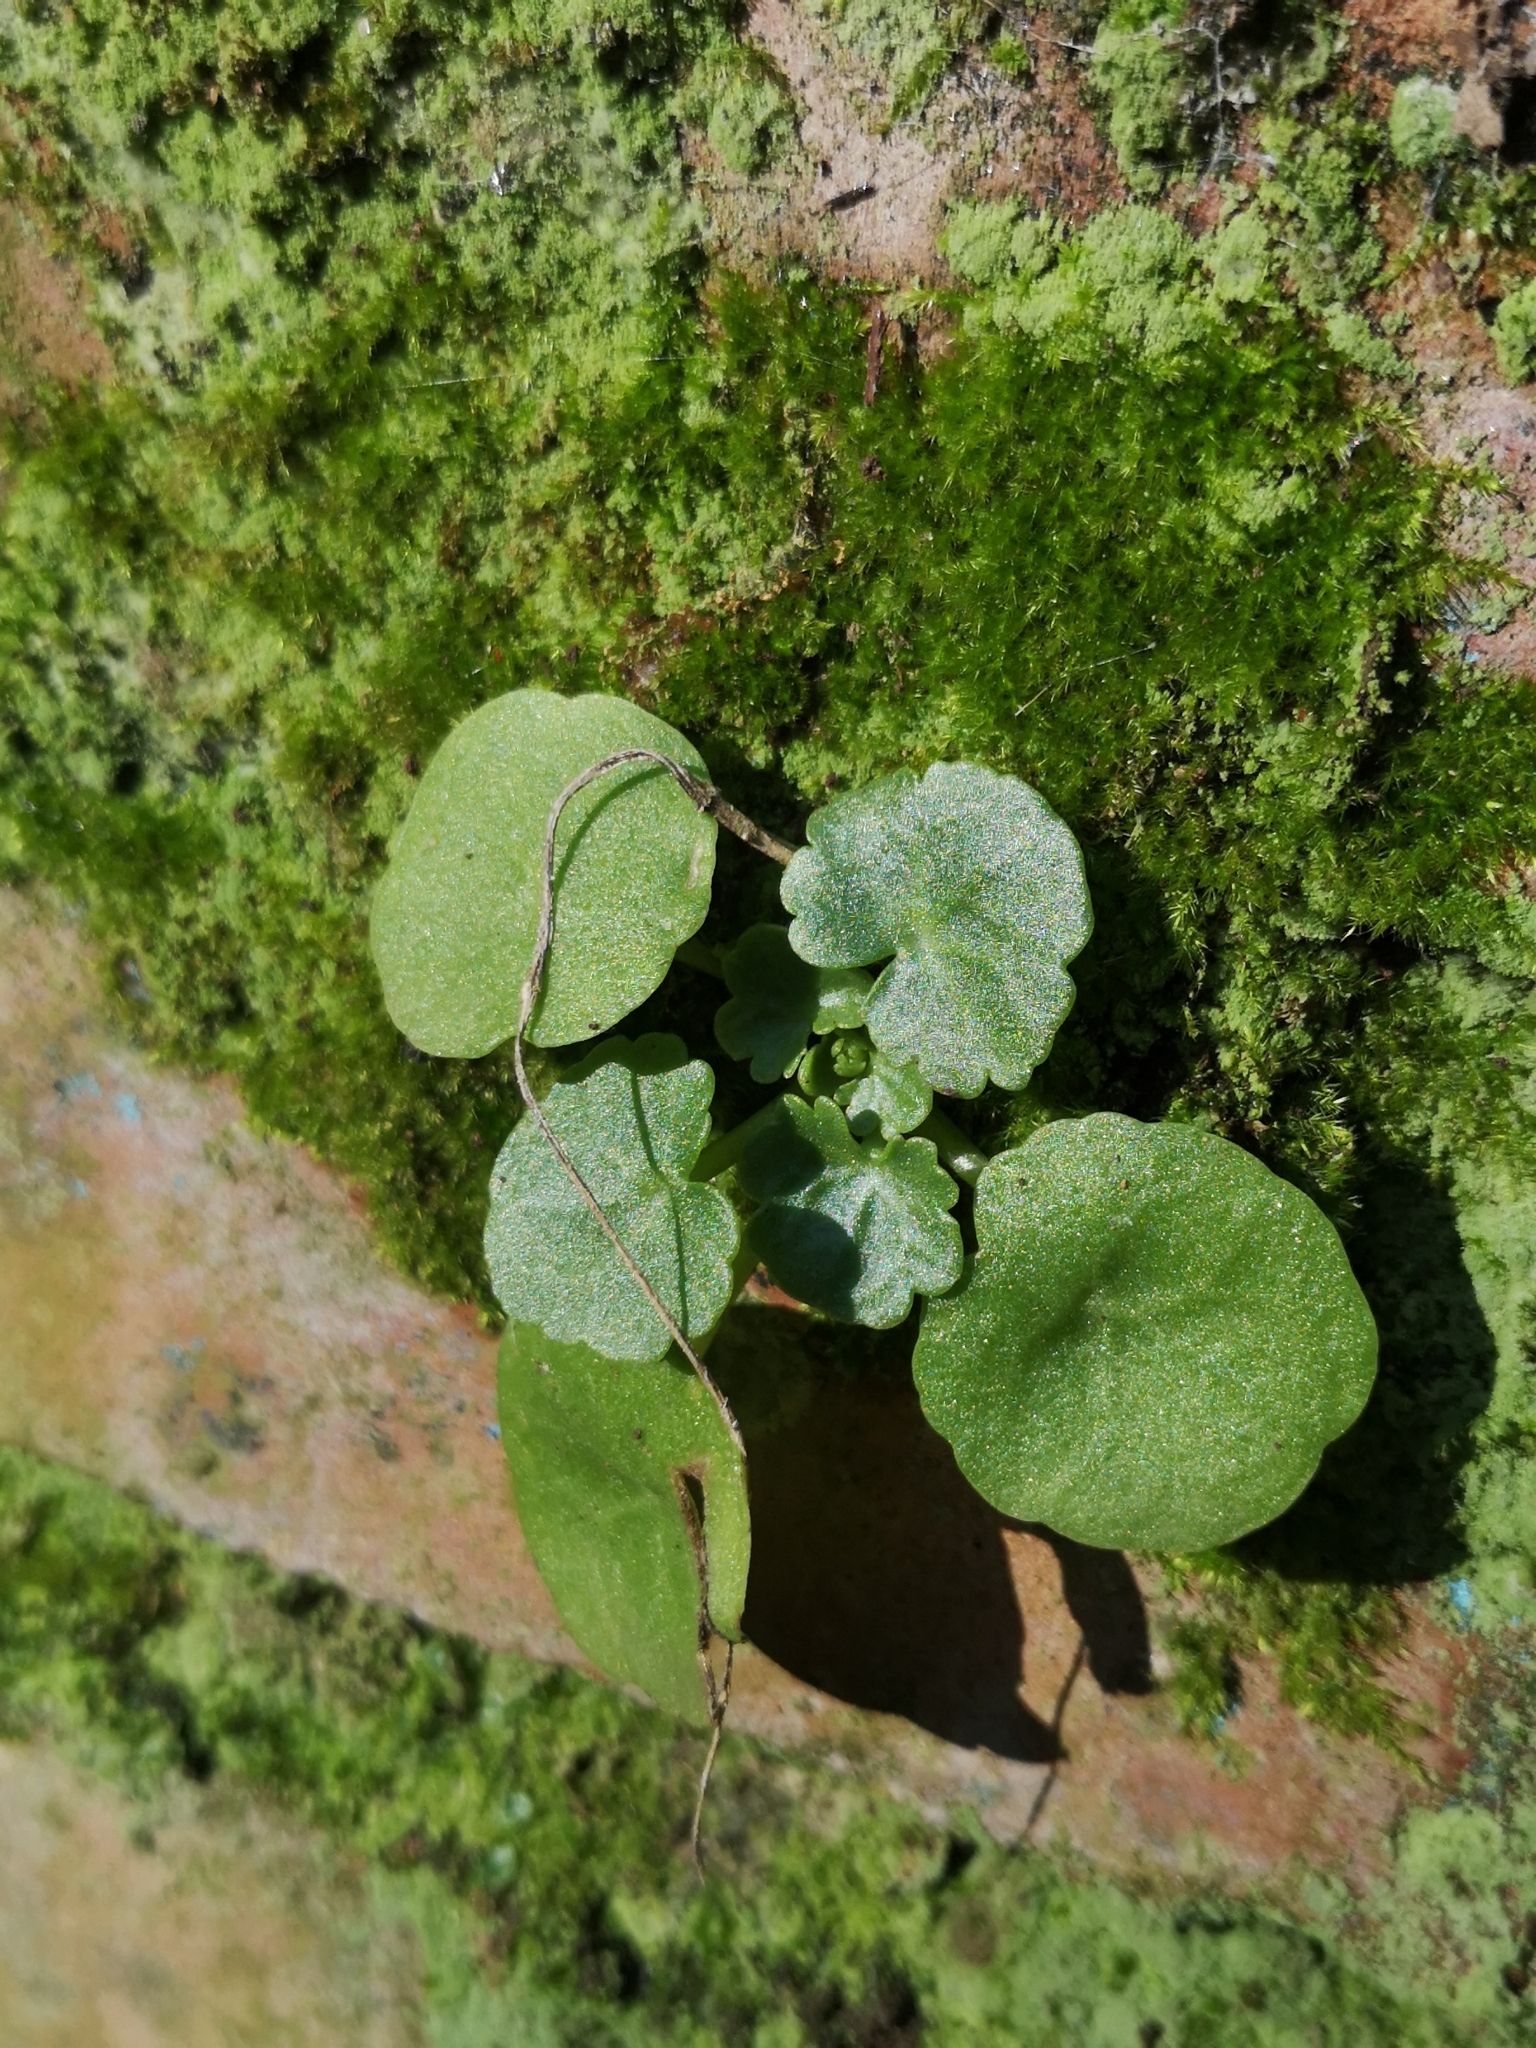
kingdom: Plantae
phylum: Tracheophyta
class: Magnoliopsida
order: Saxifragales
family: Crassulaceae
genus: Umbilicus
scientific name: Umbilicus rupestris
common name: Navelwort
